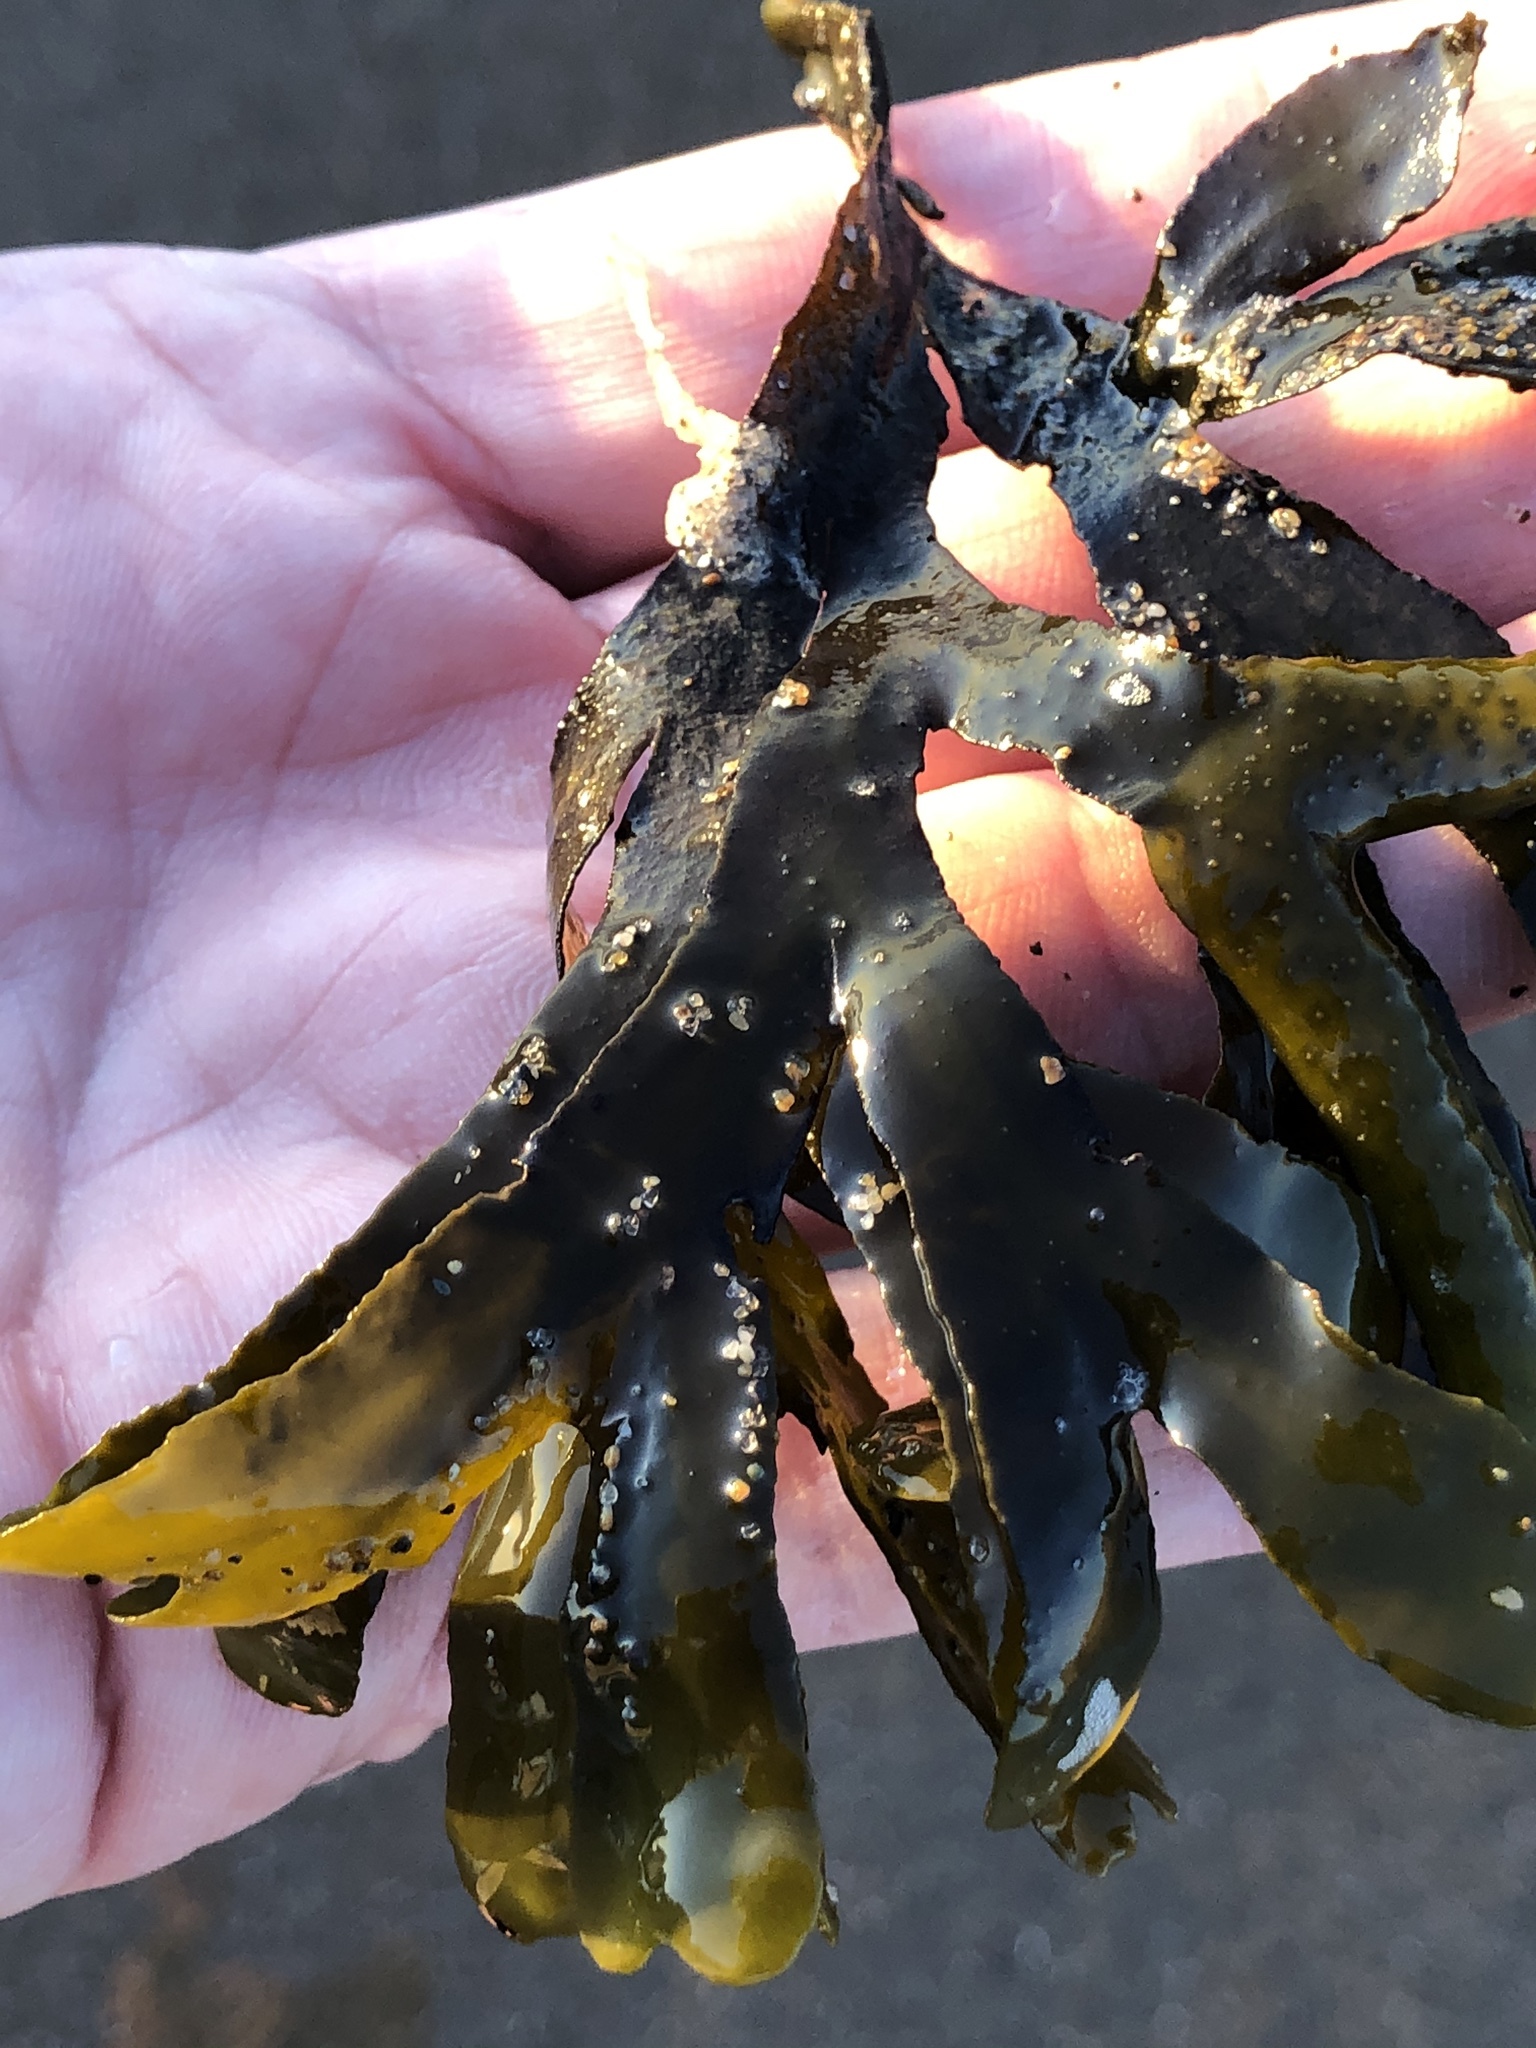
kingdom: Chromista
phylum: Ochrophyta
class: Phaeophyceae
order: Fucales
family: Fucaceae
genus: Fucus
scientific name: Fucus distichus
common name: Rockweed
